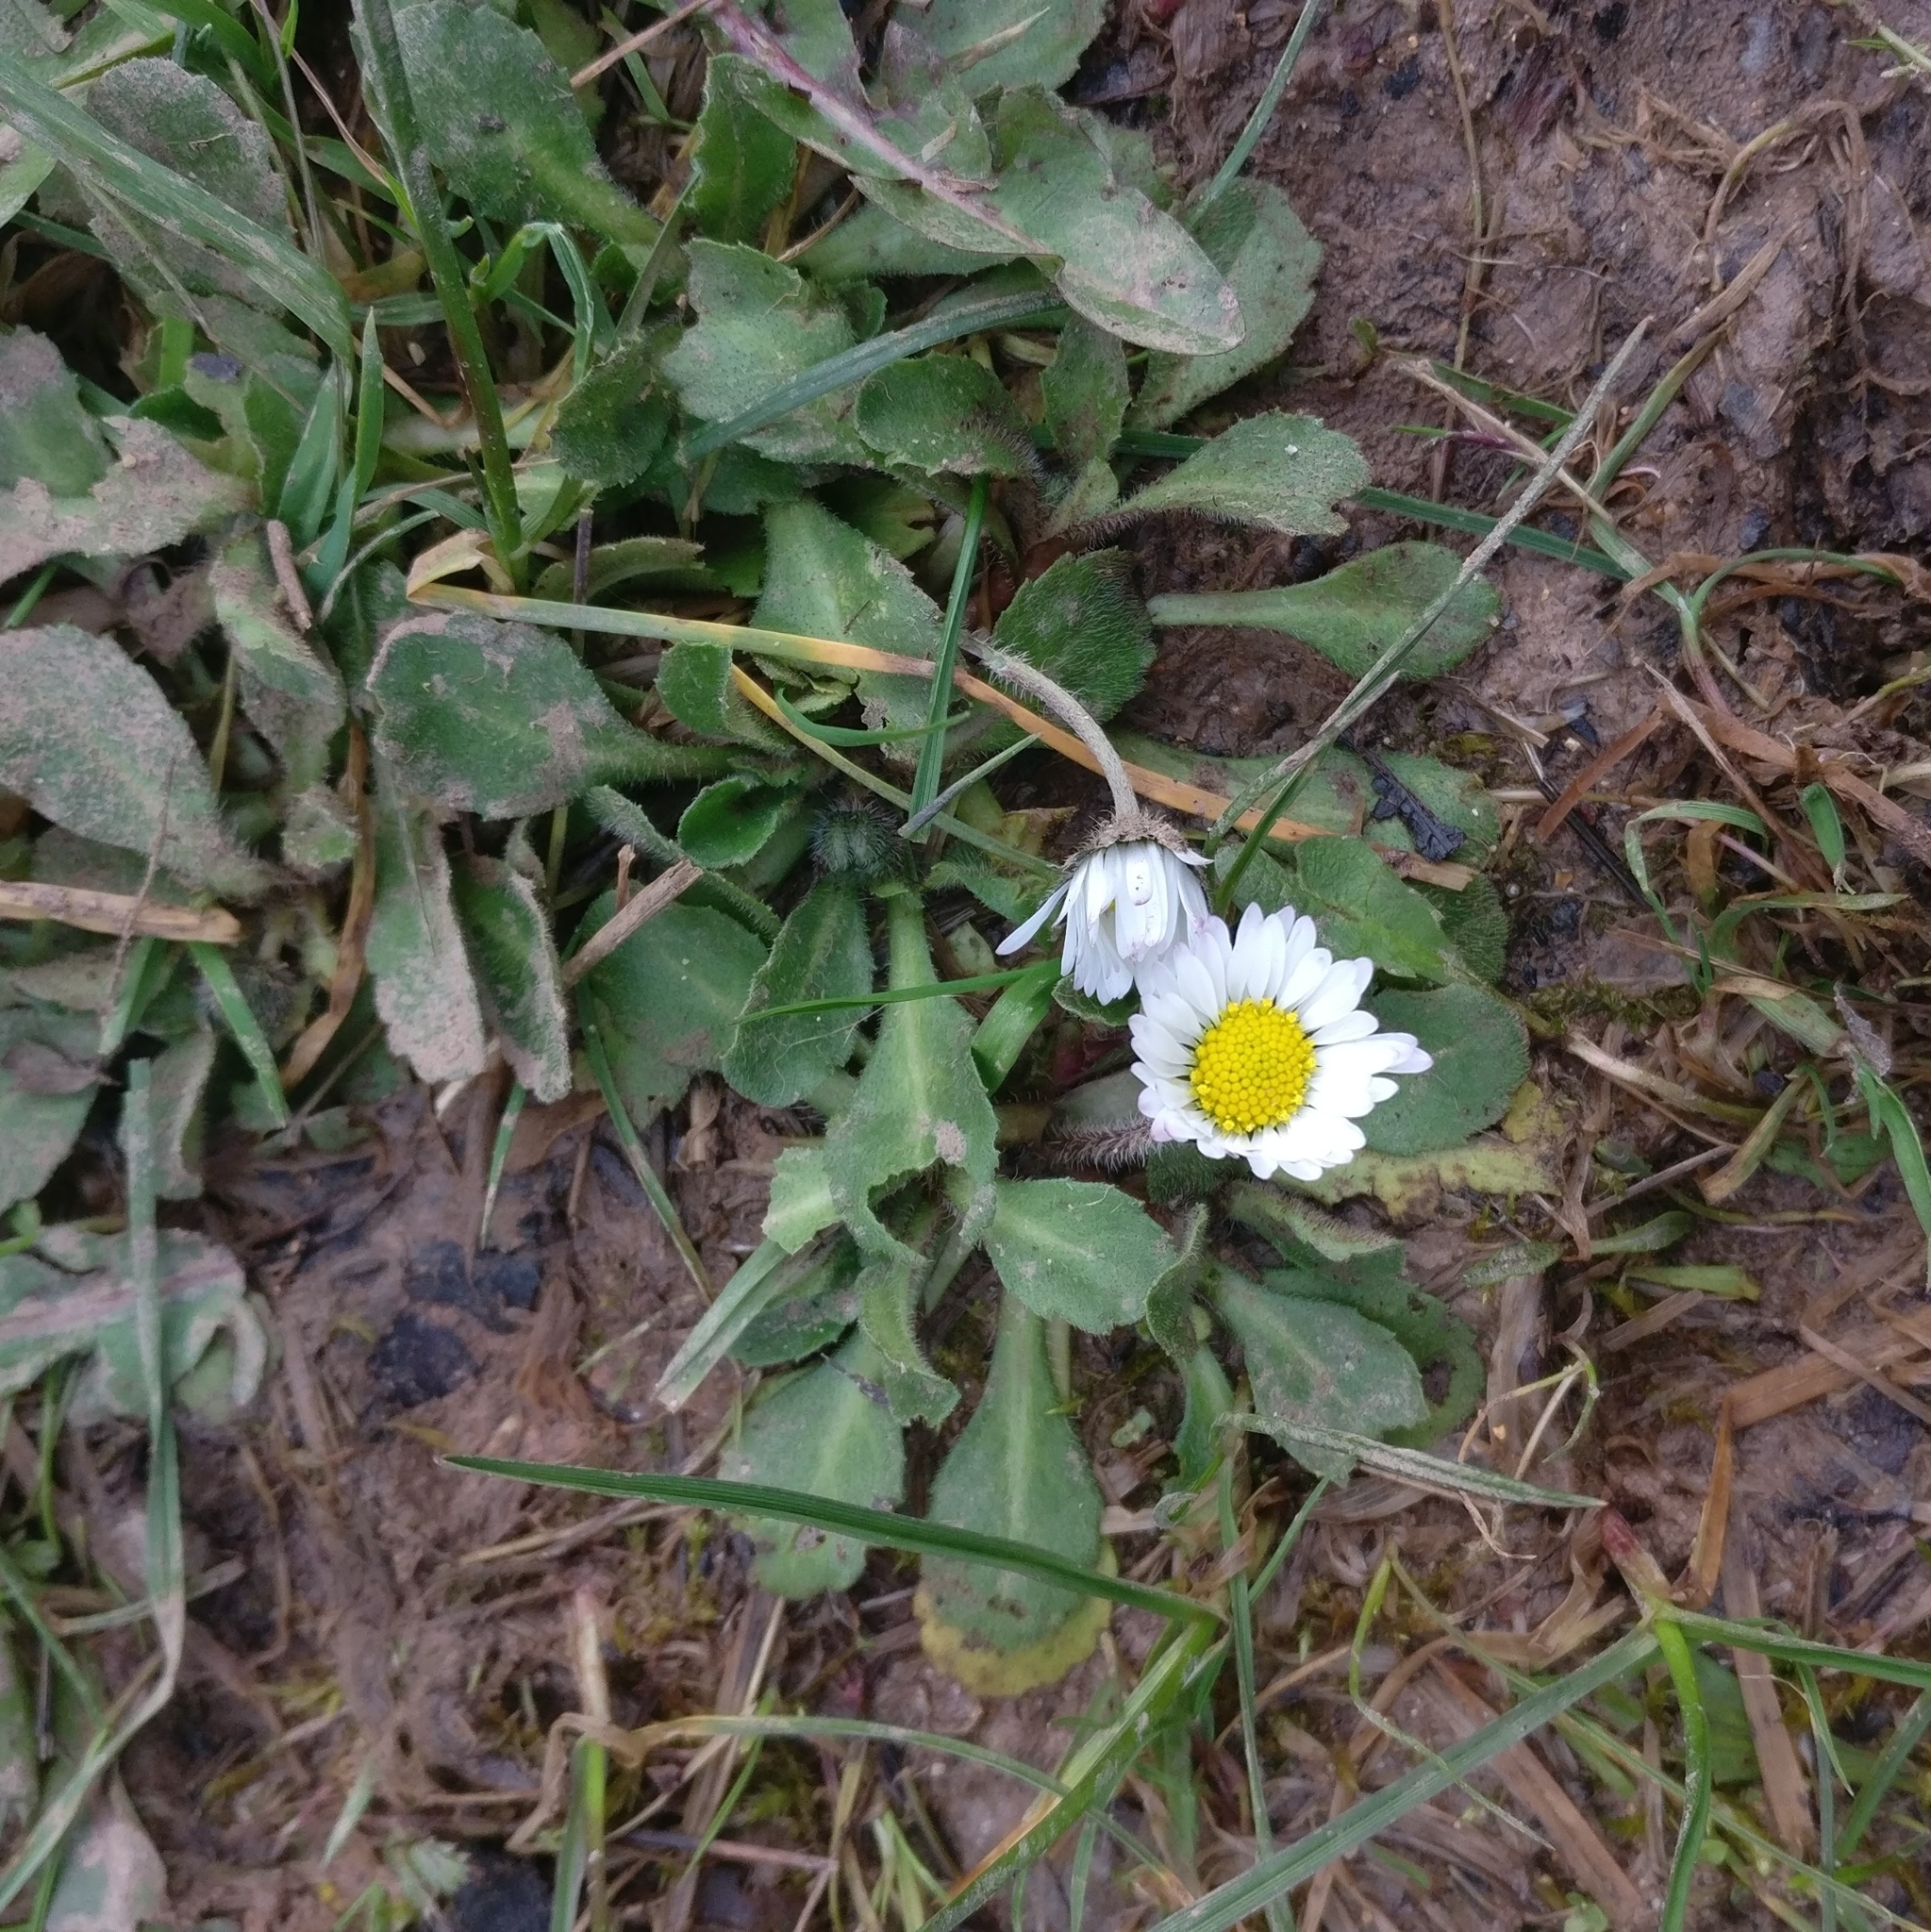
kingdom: Plantae
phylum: Tracheophyta
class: Magnoliopsida
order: Asterales
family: Asteraceae
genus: Bellis
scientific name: Bellis perennis
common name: Lawndaisy
